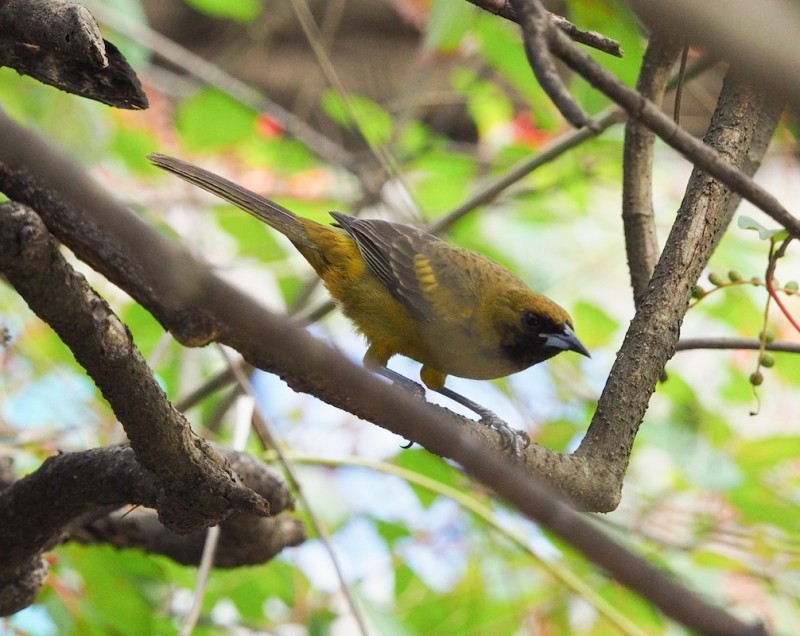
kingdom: Animalia
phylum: Chordata
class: Aves
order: Passeriformes
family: Icteridae
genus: Icterus
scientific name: Icterus dominicensis
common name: Hispaniolan oriole
